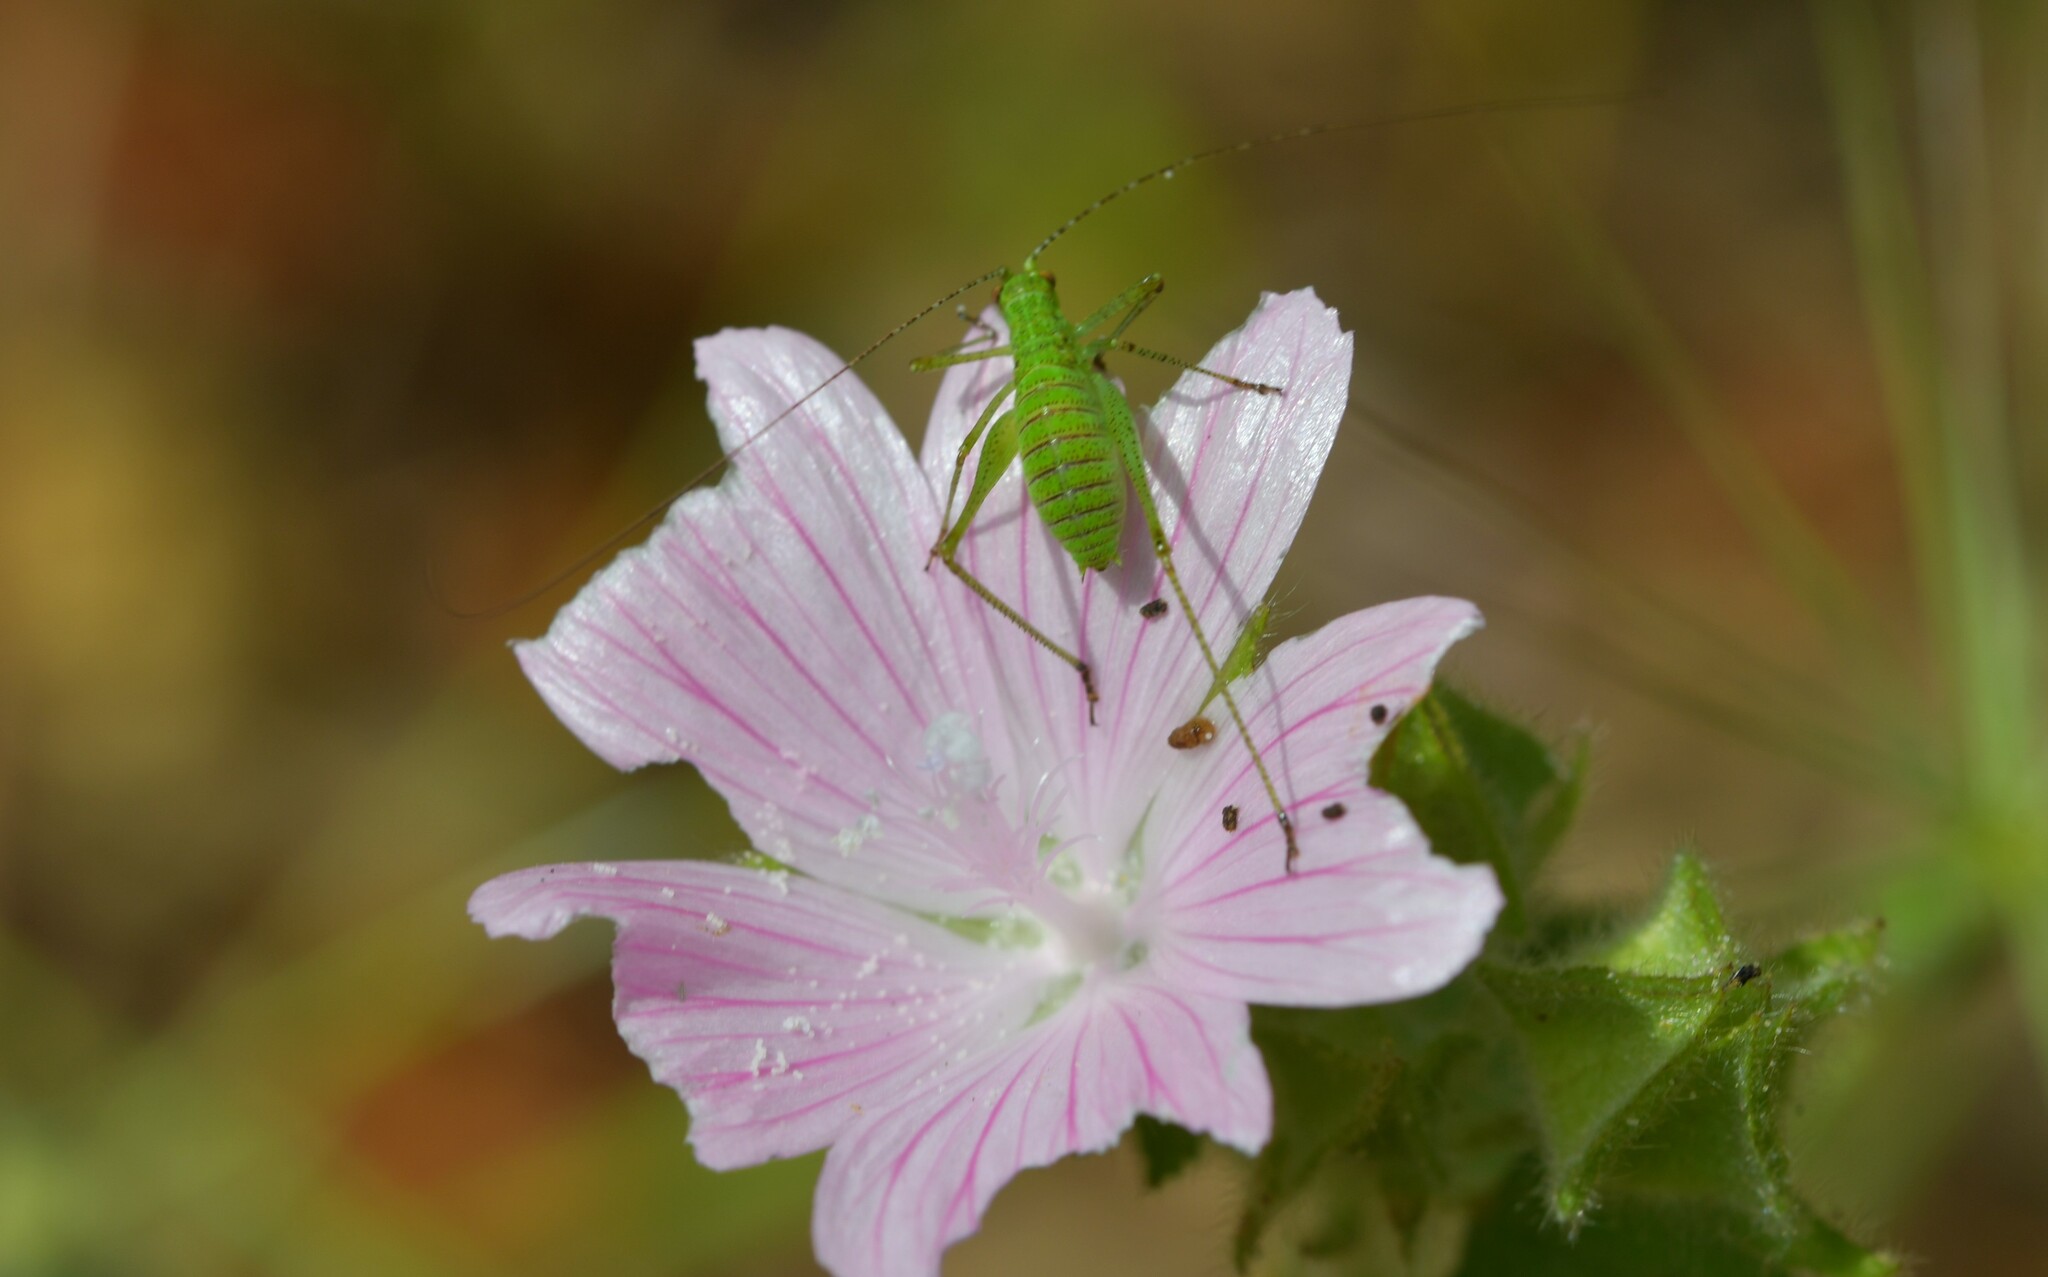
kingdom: Animalia
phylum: Arthropoda
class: Insecta
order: Orthoptera
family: Tettigoniidae
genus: Phaneroptera
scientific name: Phaneroptera nana
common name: Southern sickle bush-cricket
